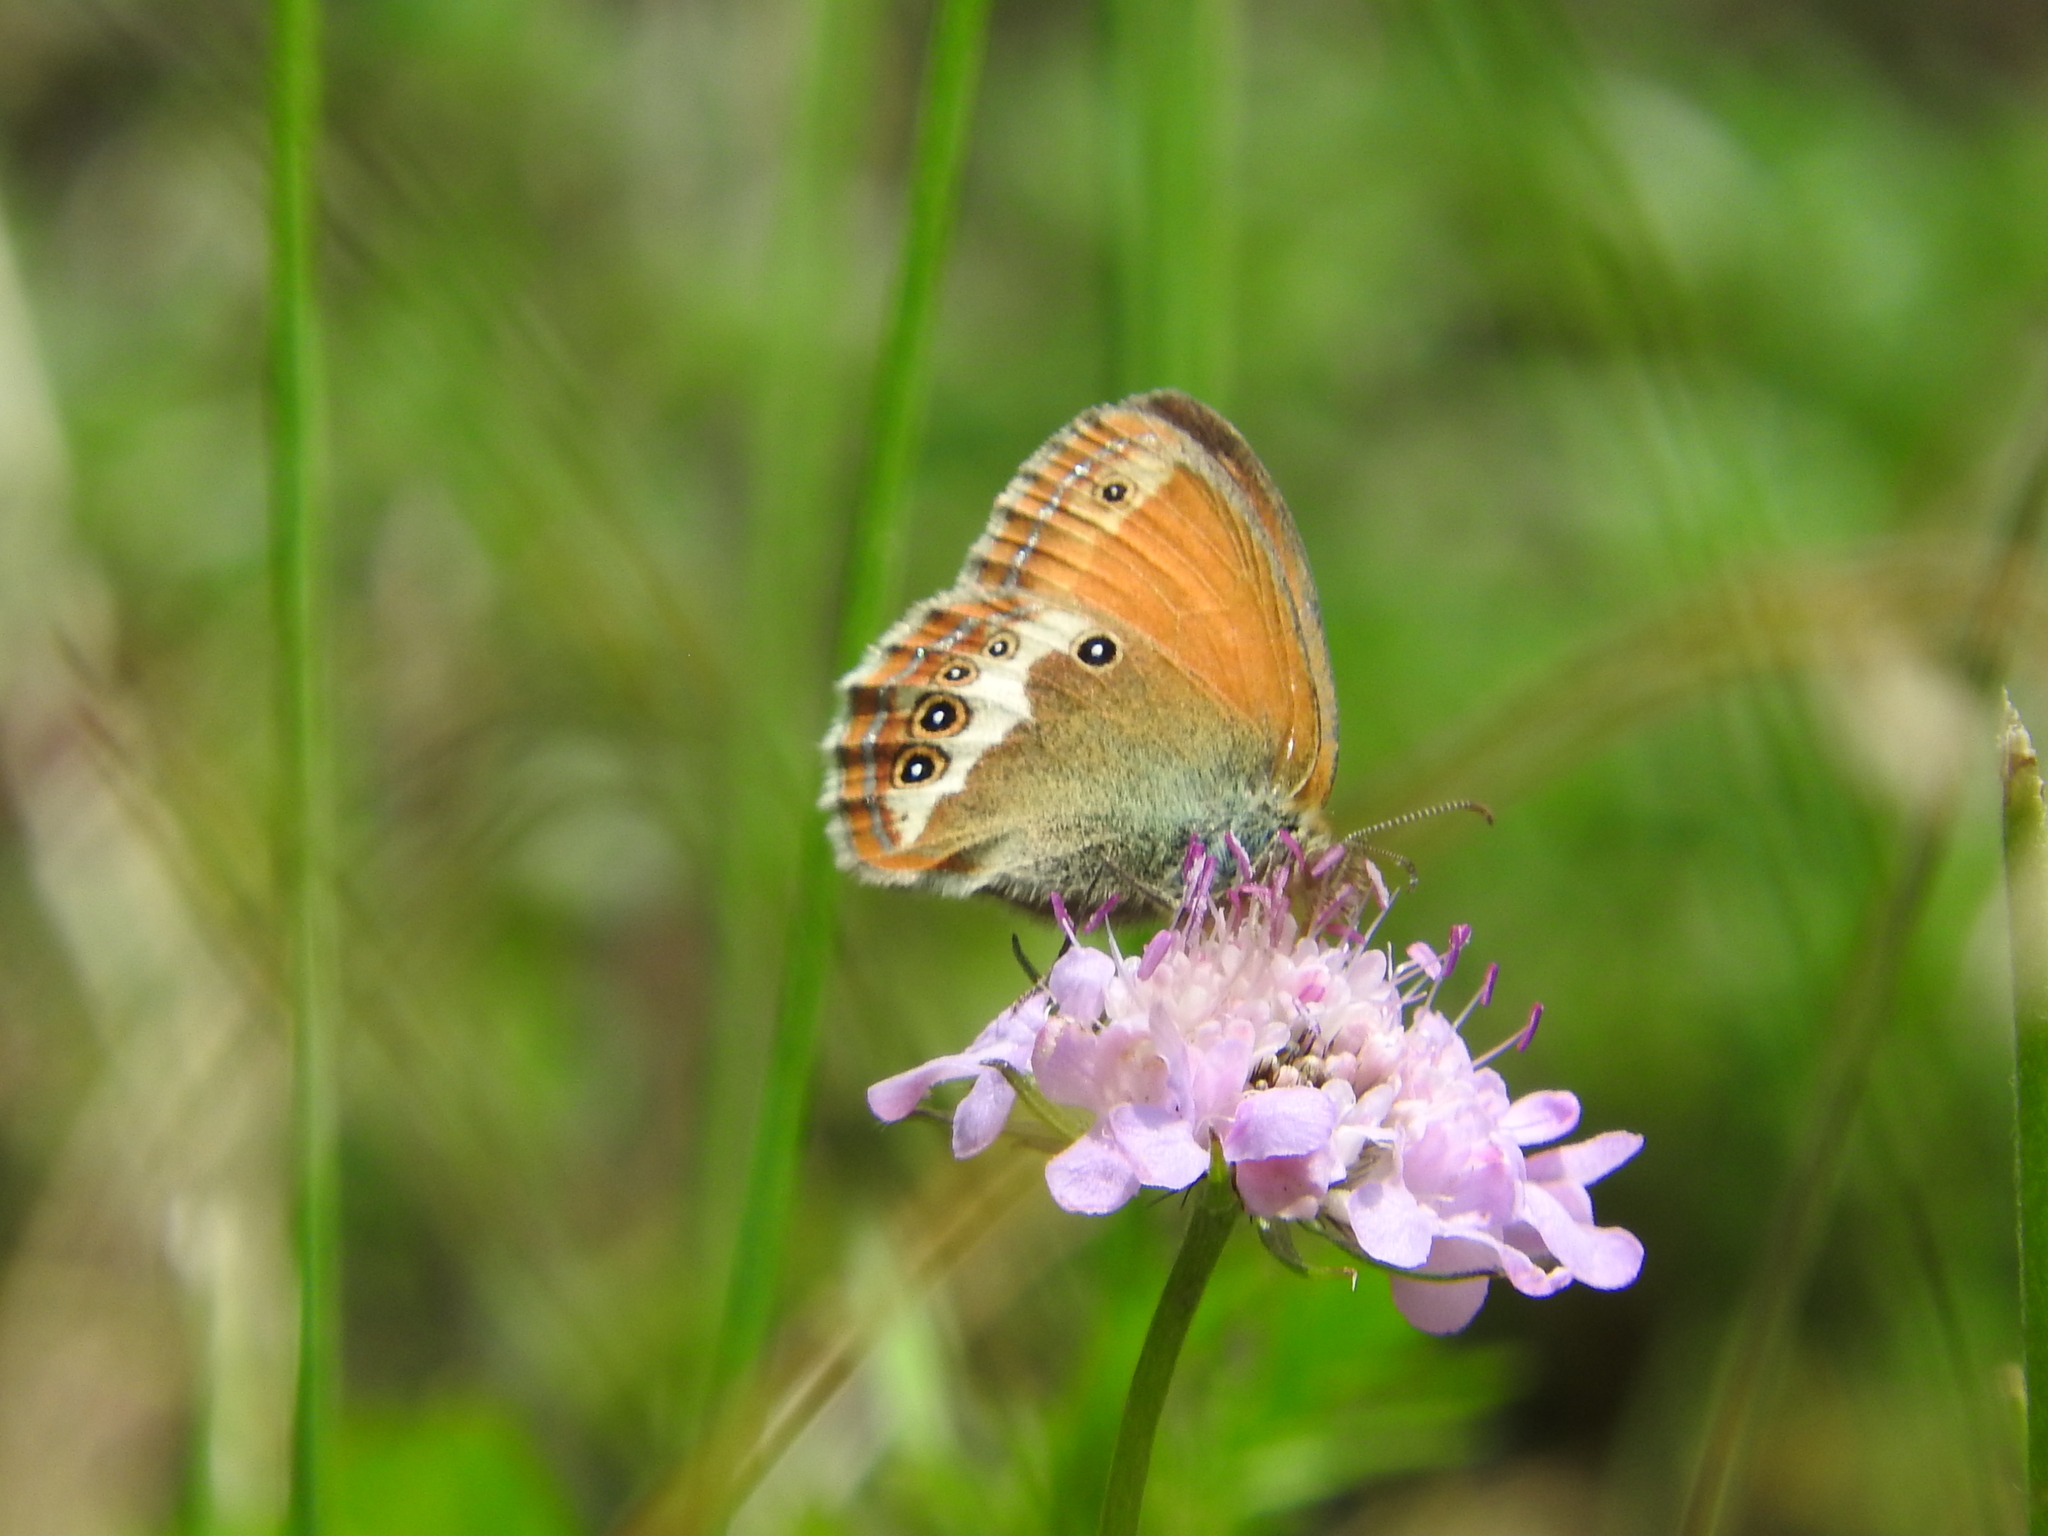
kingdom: Animalia
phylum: Arthropoda
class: Insecta
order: Lepidoptera
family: Nymphalidae
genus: Coenonympha
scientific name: Coenonympha arcania
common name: Pearly heath
